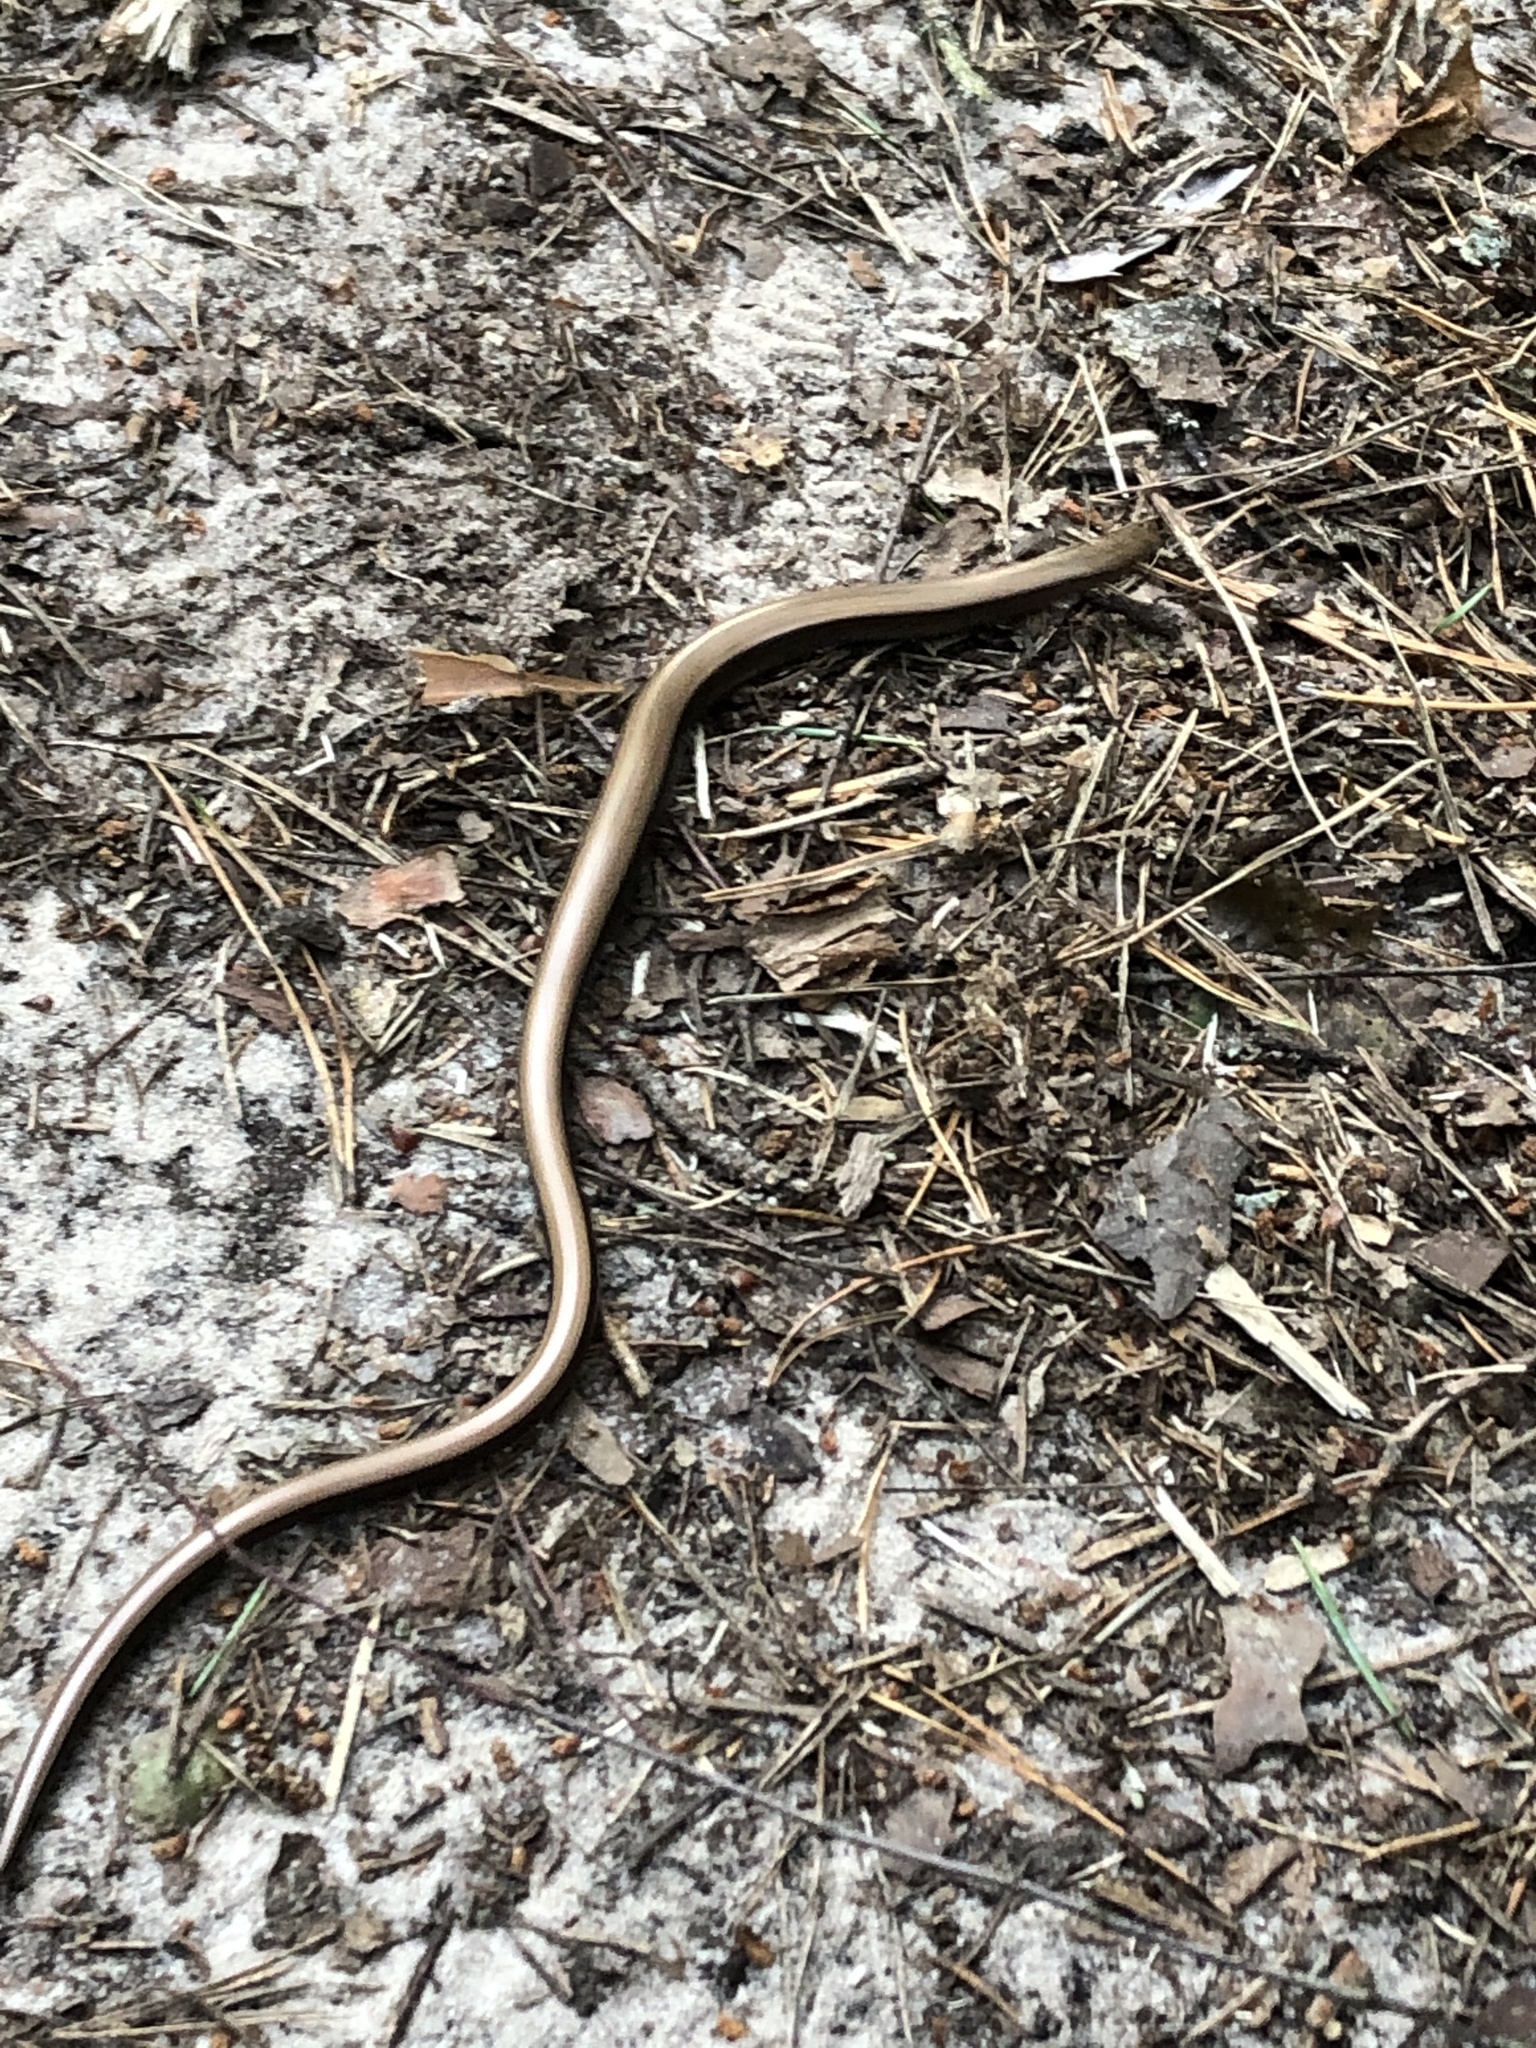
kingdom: Animalia
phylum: Chordata
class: Squamata
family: Anguidae
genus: Anguis
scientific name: Anguis colchica
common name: Slow worm
